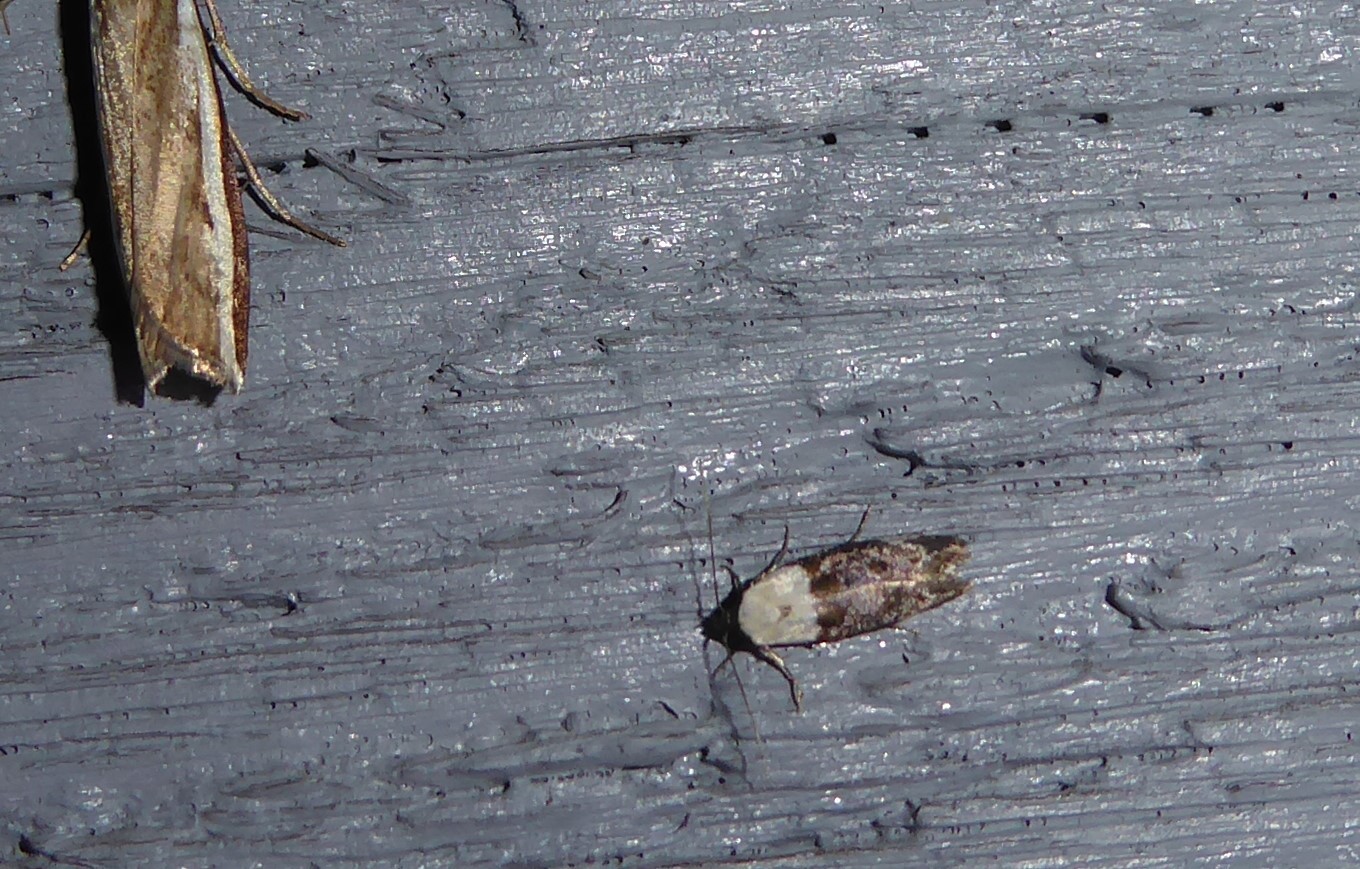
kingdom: Animalia
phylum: Arthropoda
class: Insecta
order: Lepidoptera
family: Oecophoridae
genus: Trachypepla
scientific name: Trachypepla euryleucota
